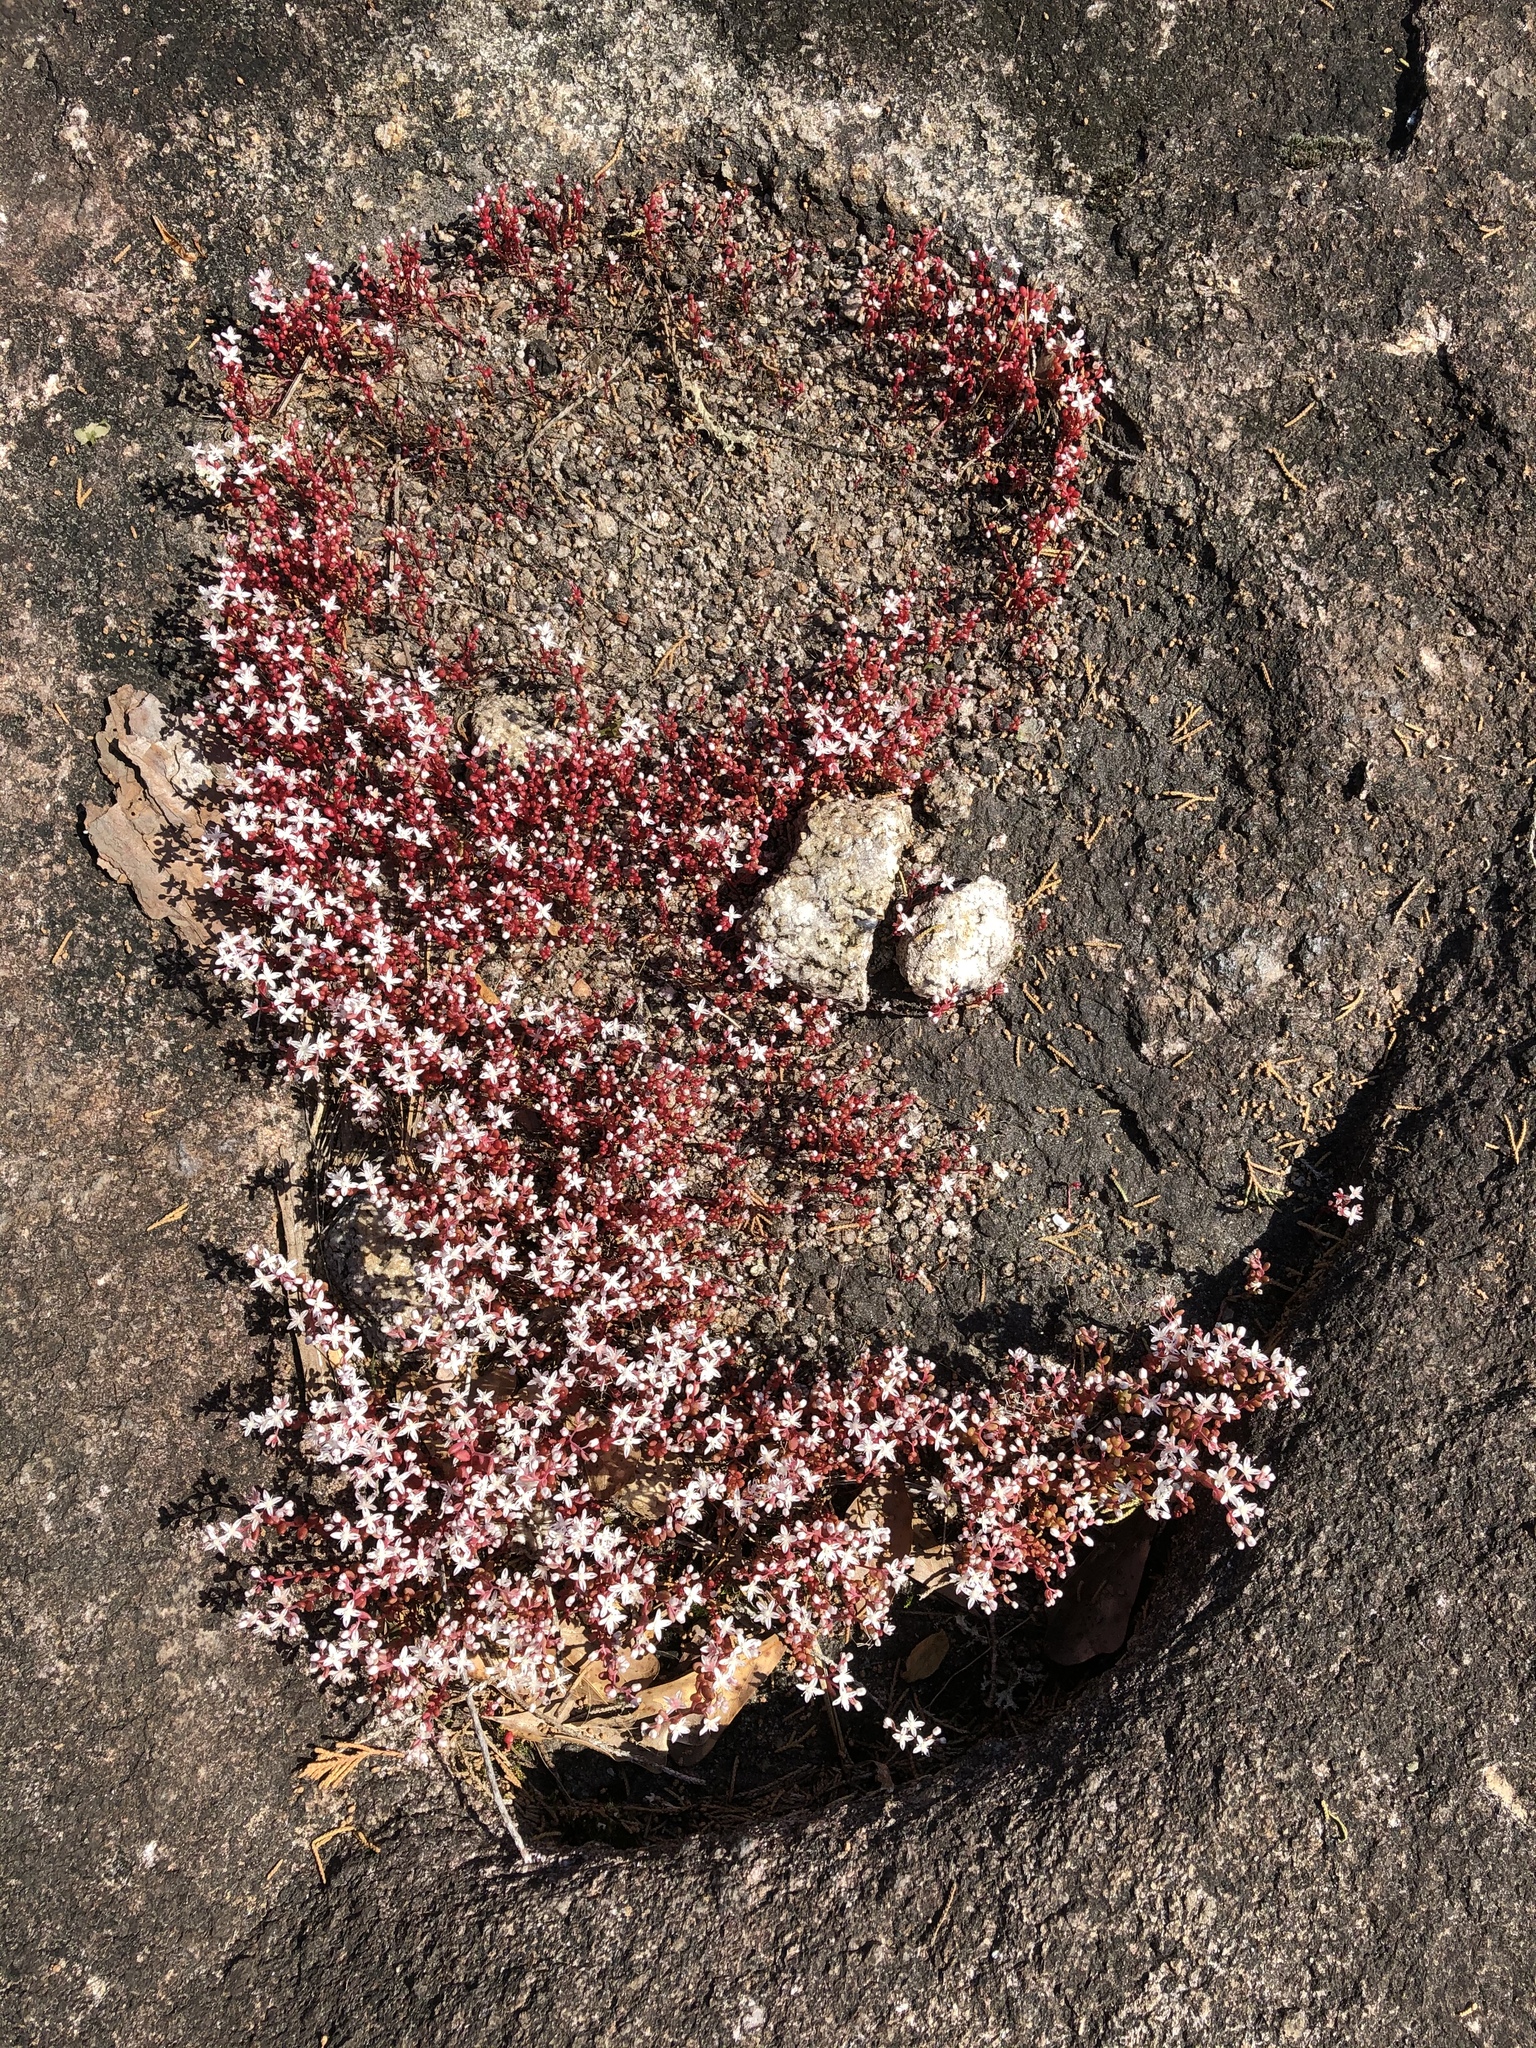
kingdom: Plantae
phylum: Tracheophyta
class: Magnoliopsida
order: Saxifragales
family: Crassulaceae
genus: Sedum
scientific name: Sedum smallii
